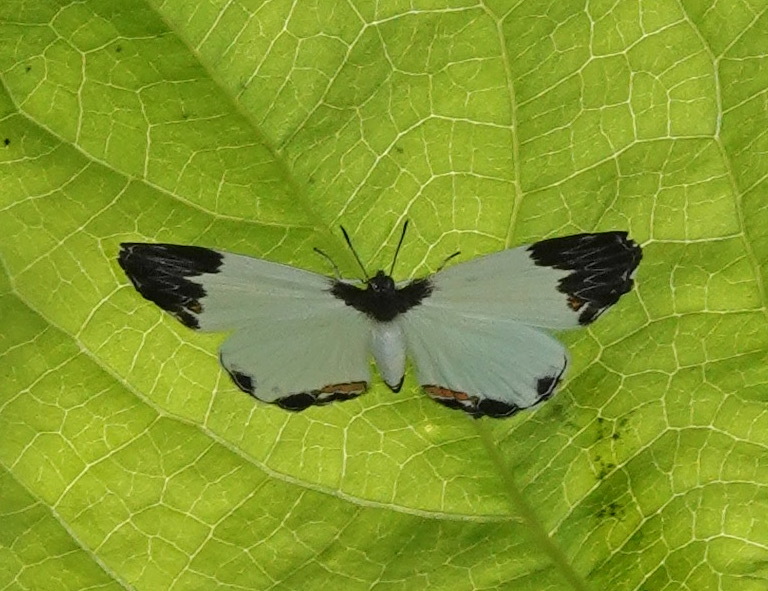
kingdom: Animalia
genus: Nymphidium
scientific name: Nymphidium ninias
